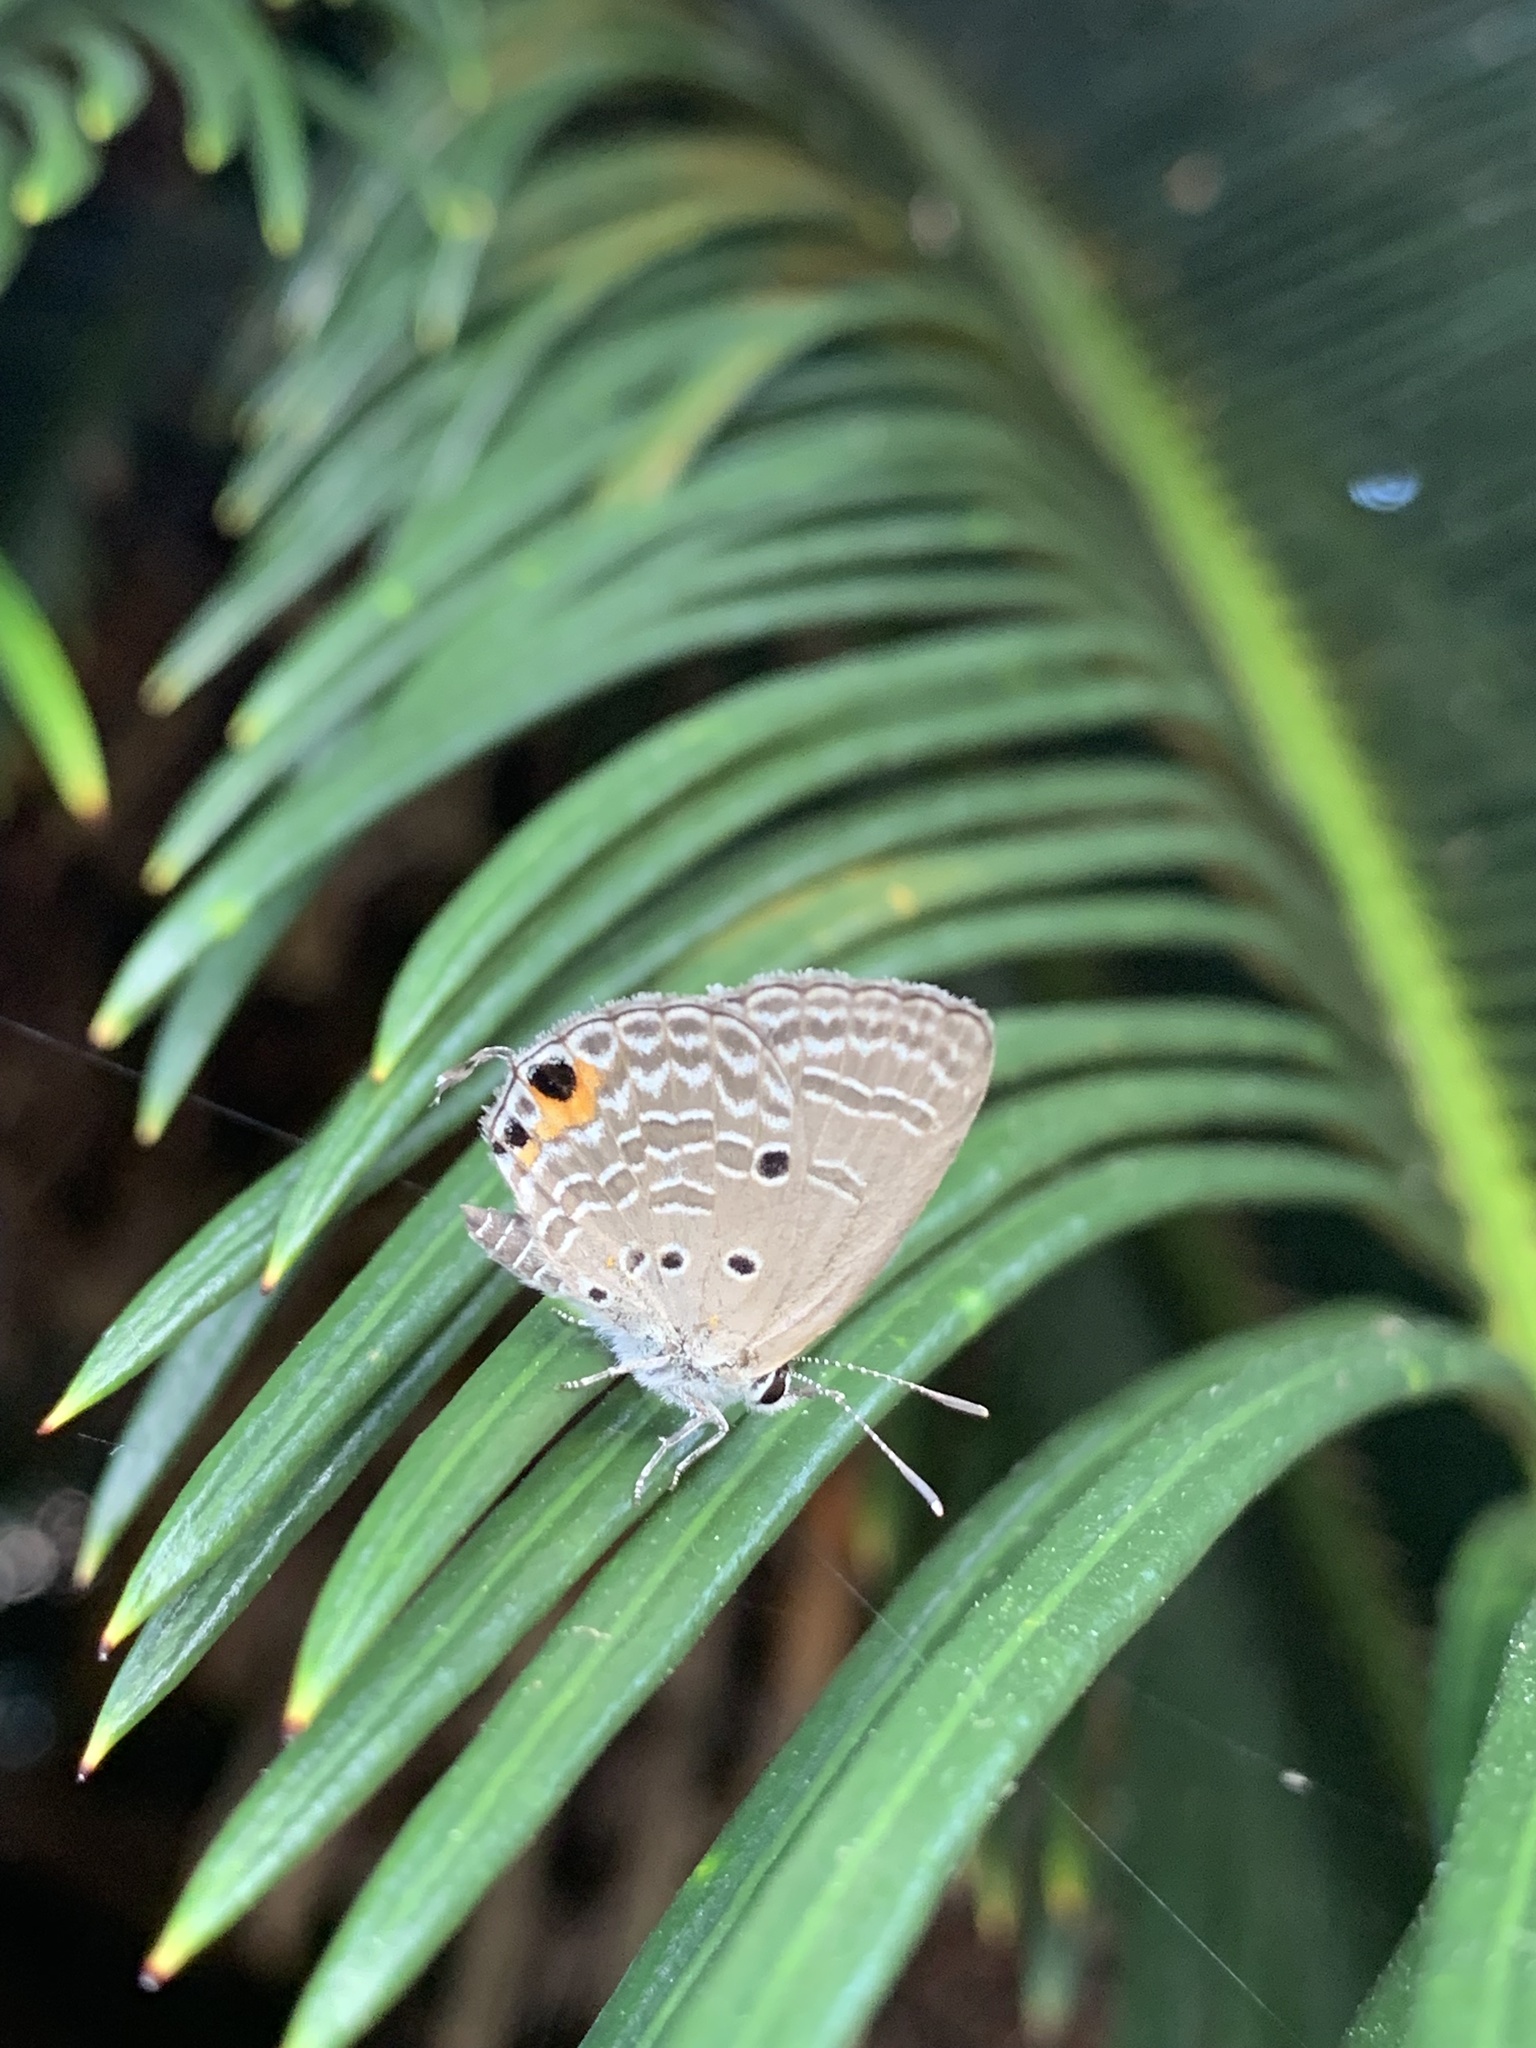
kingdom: Animalia
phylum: Arthropoda
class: Insecta
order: Lepidoptera
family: Lycaenidae
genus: Luthrodes
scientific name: Luthrodes pandava
